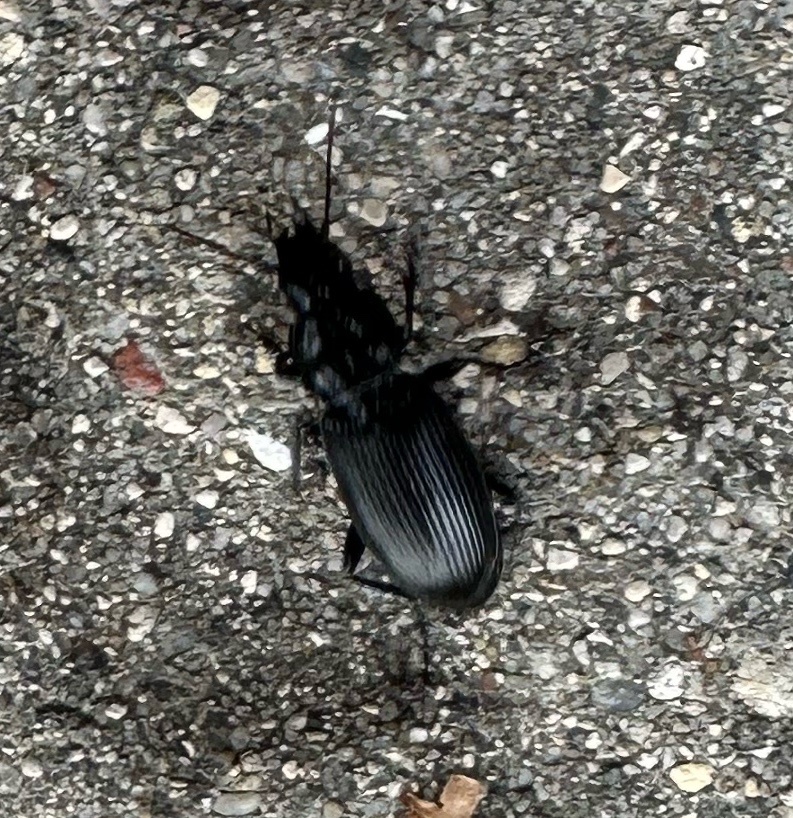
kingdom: Animalia
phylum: Arthropoda
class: Insecta
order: Coleoptera
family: Carabidae
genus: Pterostichus
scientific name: Pterostichus melanarius
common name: European dark harp ground beetle
